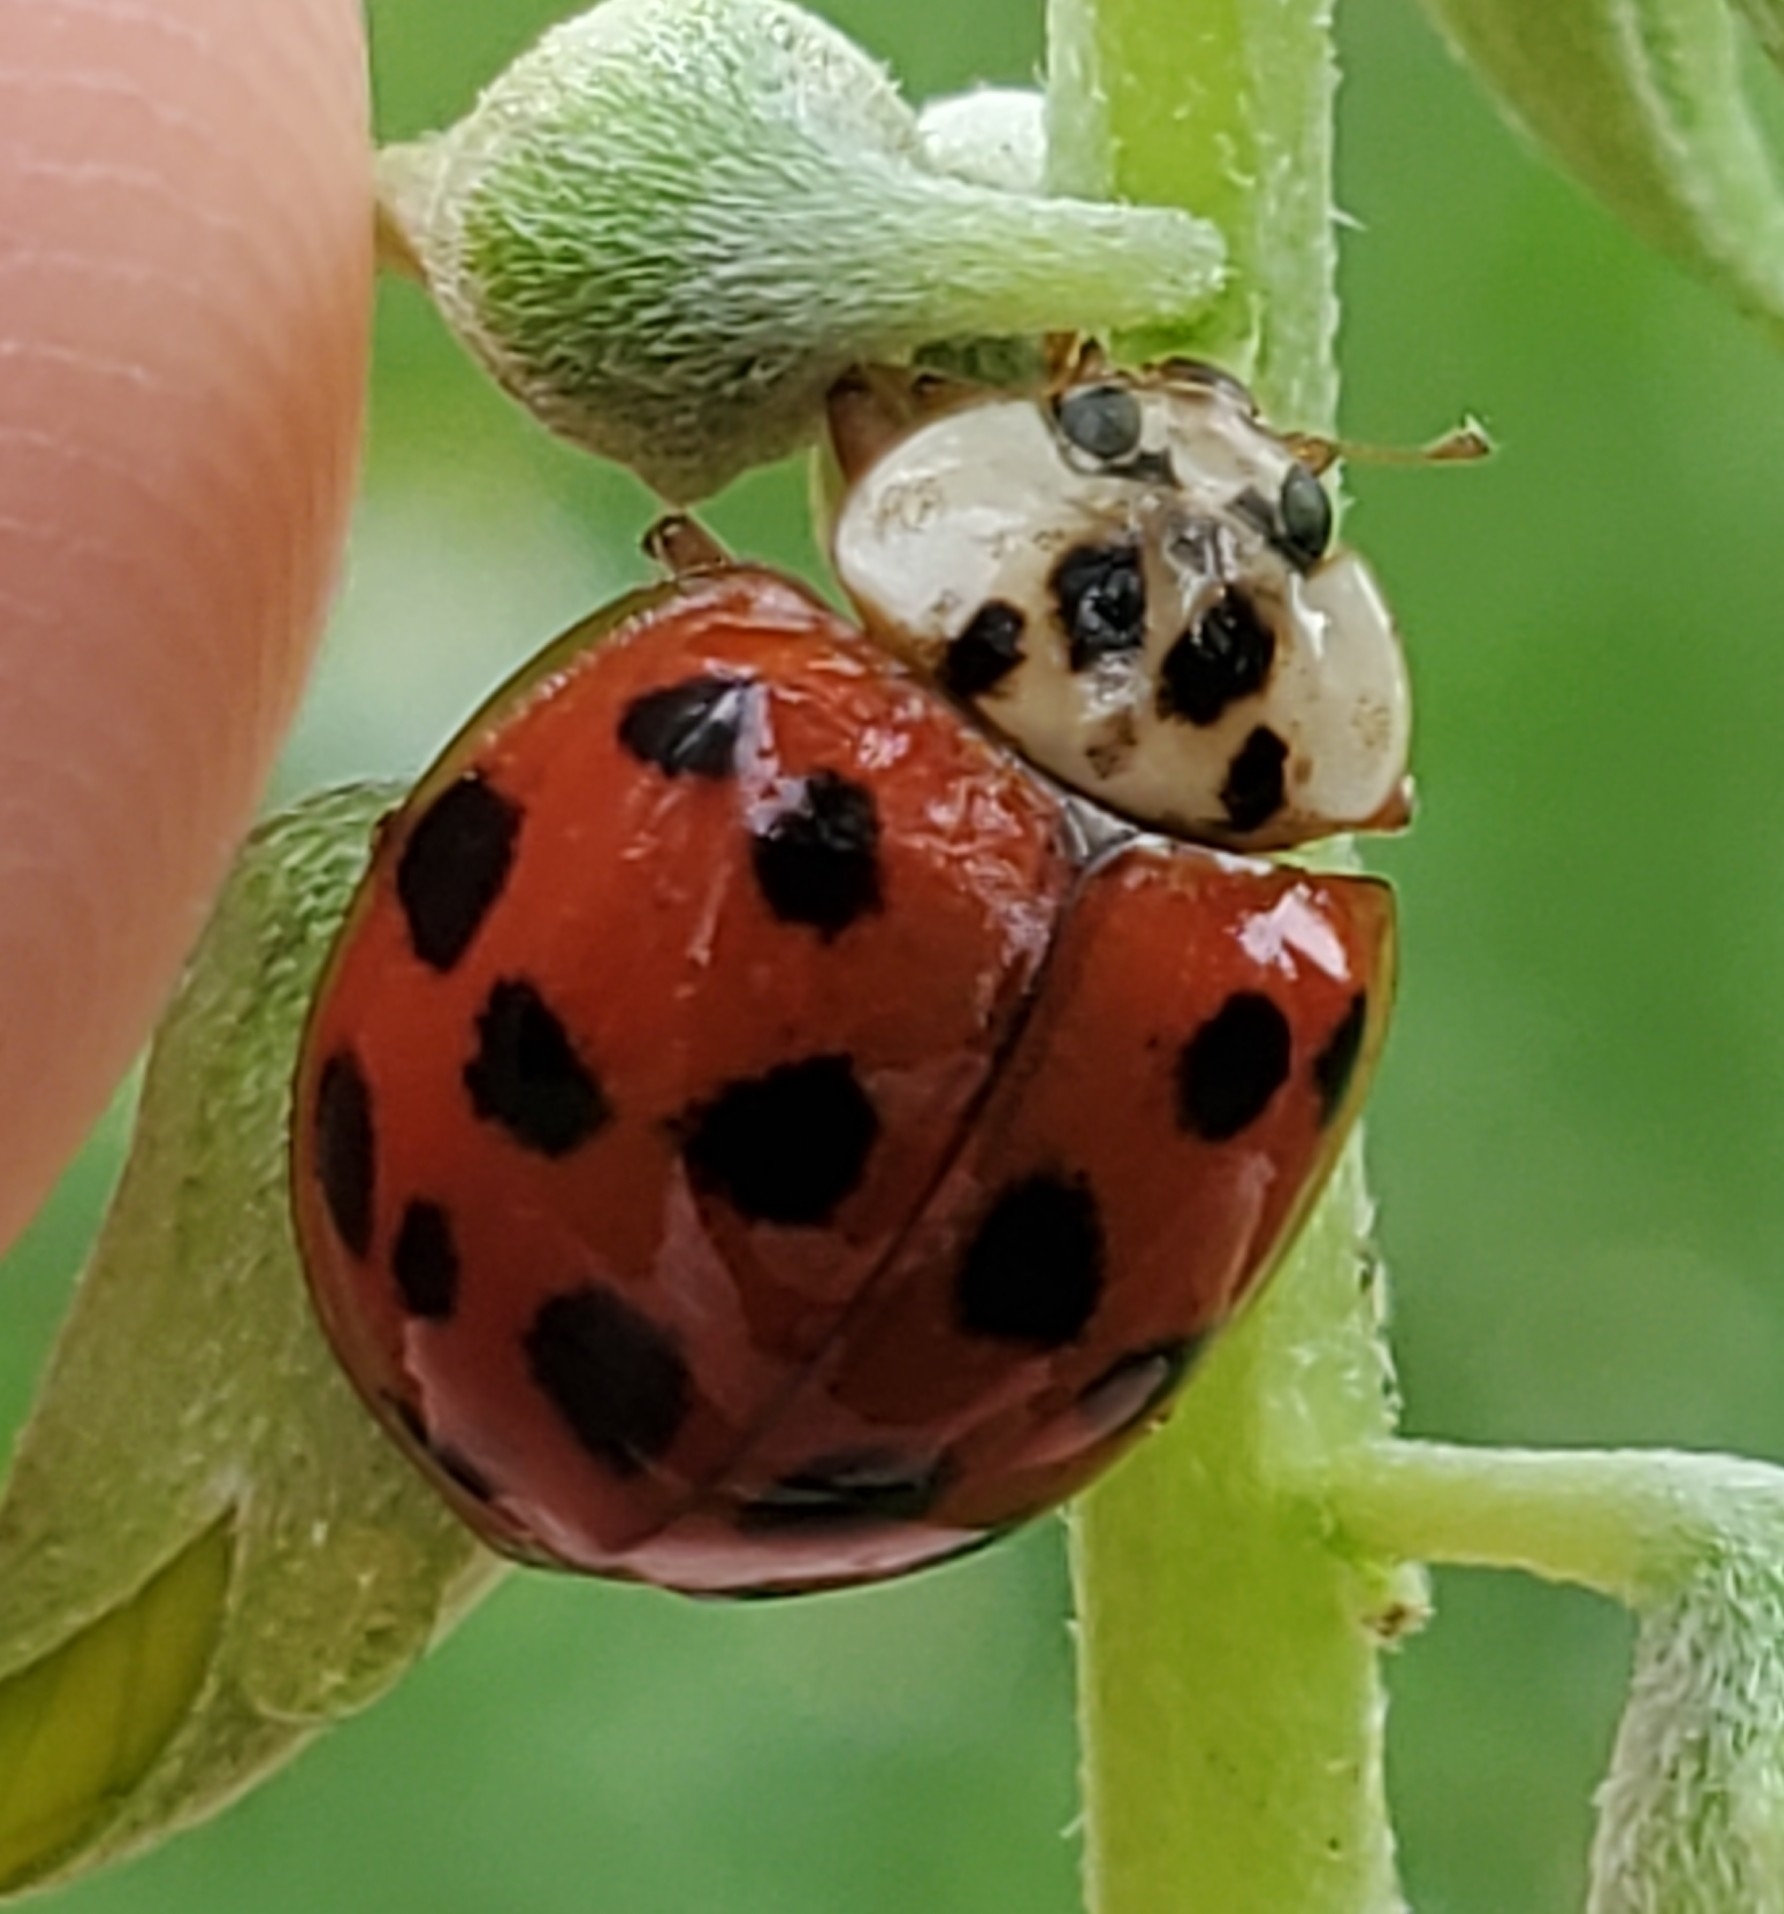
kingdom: Animalia
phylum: Arthropoda
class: Insecta
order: Coleoptera
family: Coccinellidae
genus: Harmonia
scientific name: Harmonia axyridis
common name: Harlequin ladybird
